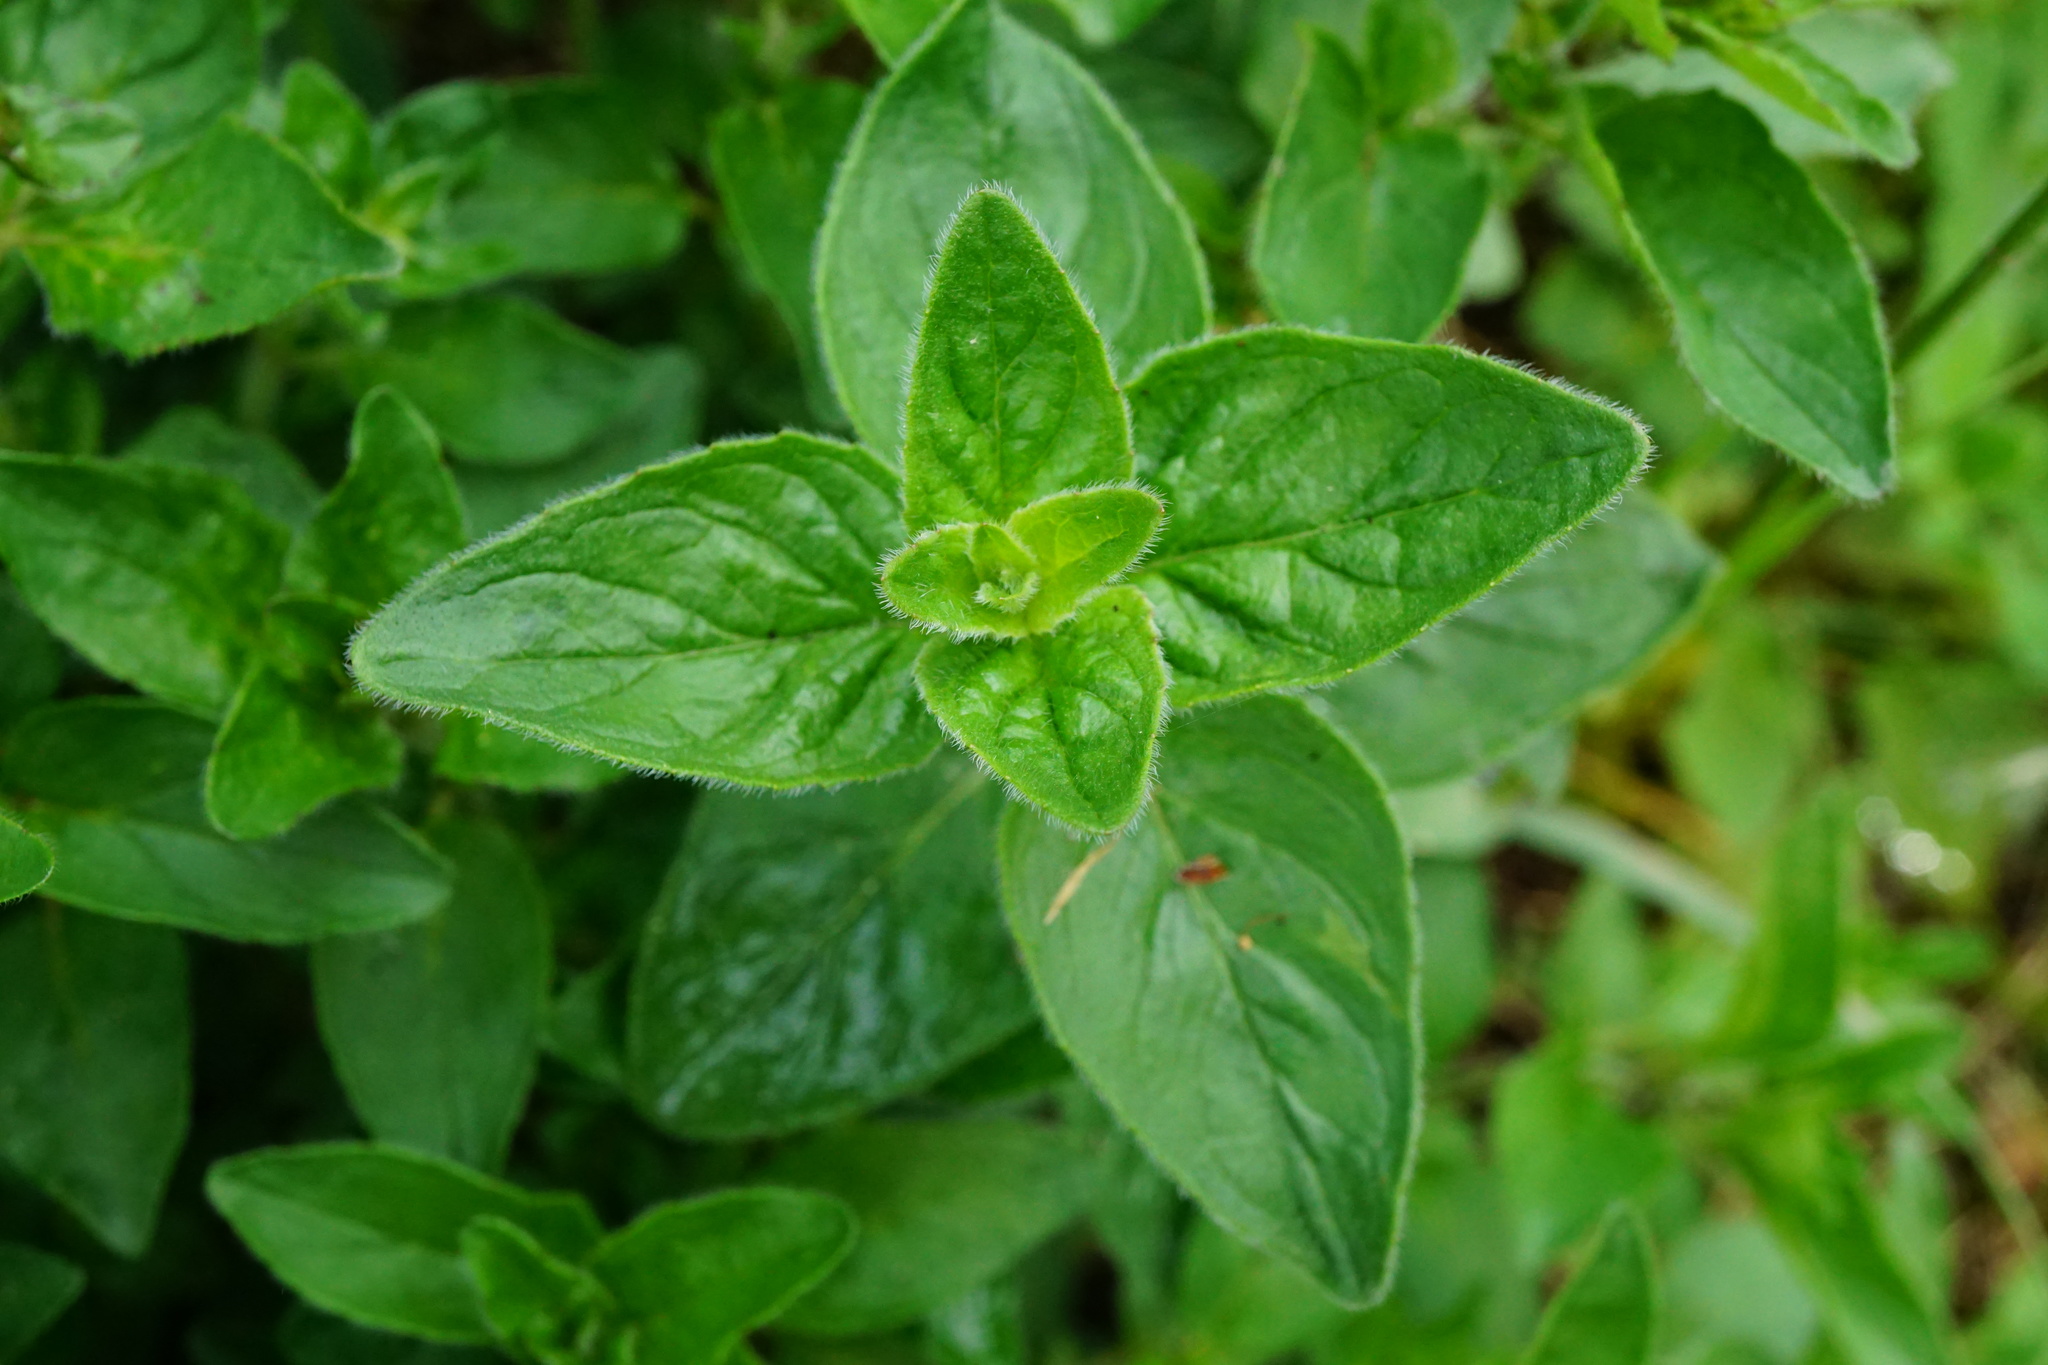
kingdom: Plantae
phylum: Tracheophyta
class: Magnoliopsida
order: Lamiales
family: Lamiaceae
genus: Origanum
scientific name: Origanum vulgare
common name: Wild marjoram
